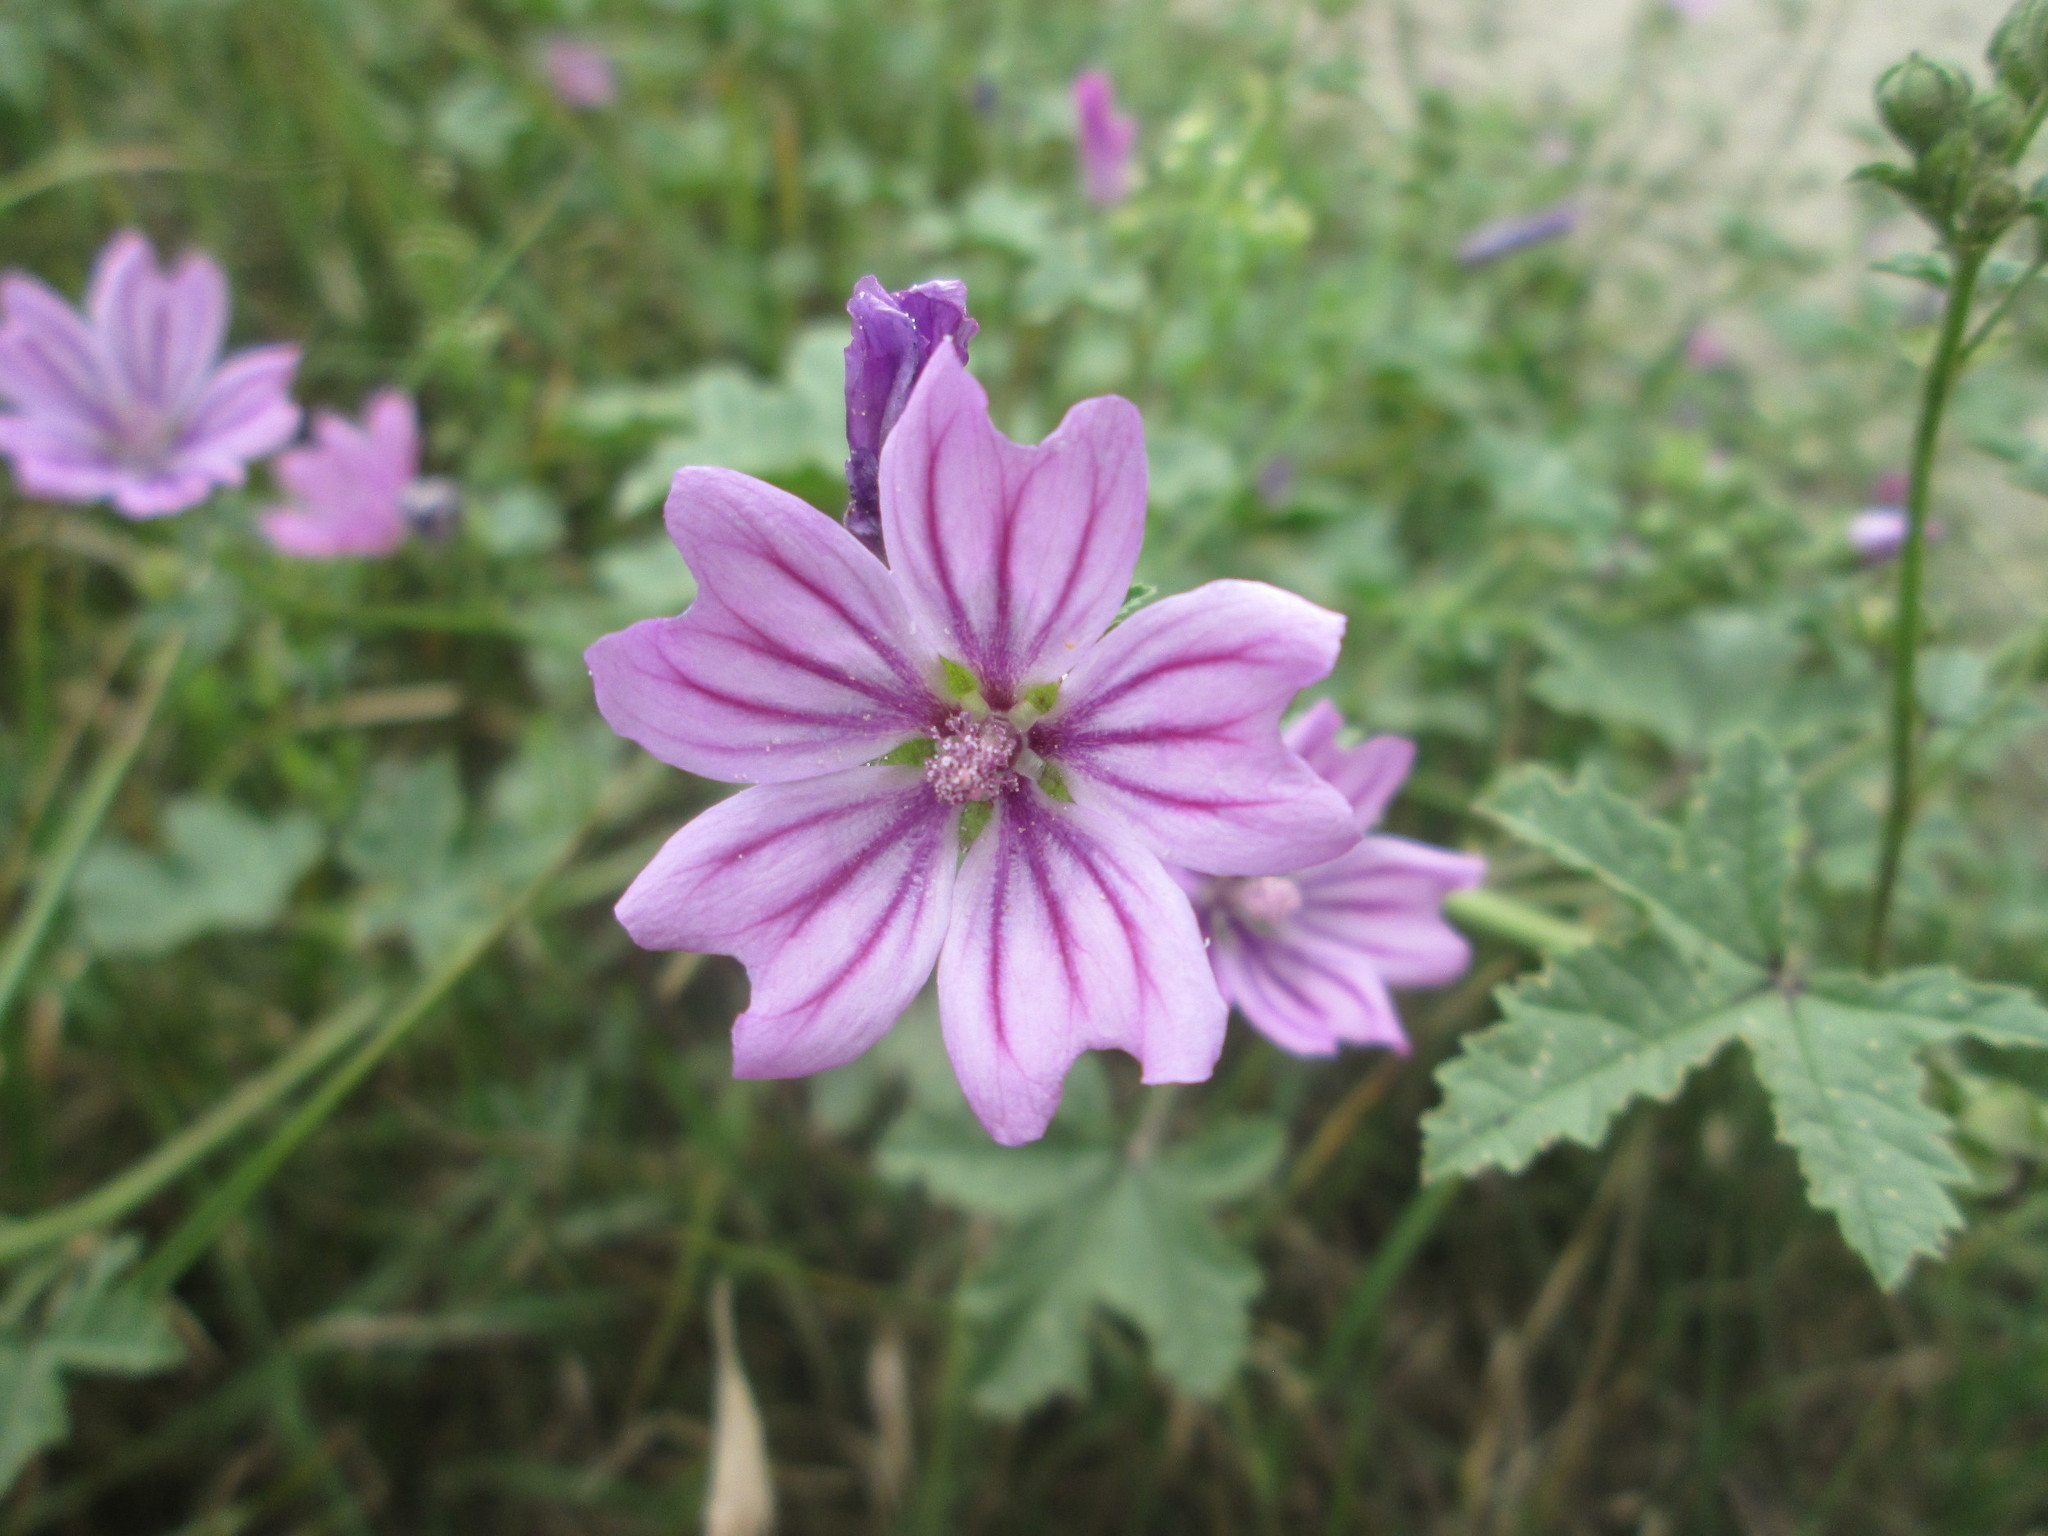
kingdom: Plantae
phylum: Tracheophyta
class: Magnoliopsida
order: Malvales
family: Malvaceae
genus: Malva
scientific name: Malva sylvestris
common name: Common mallow
